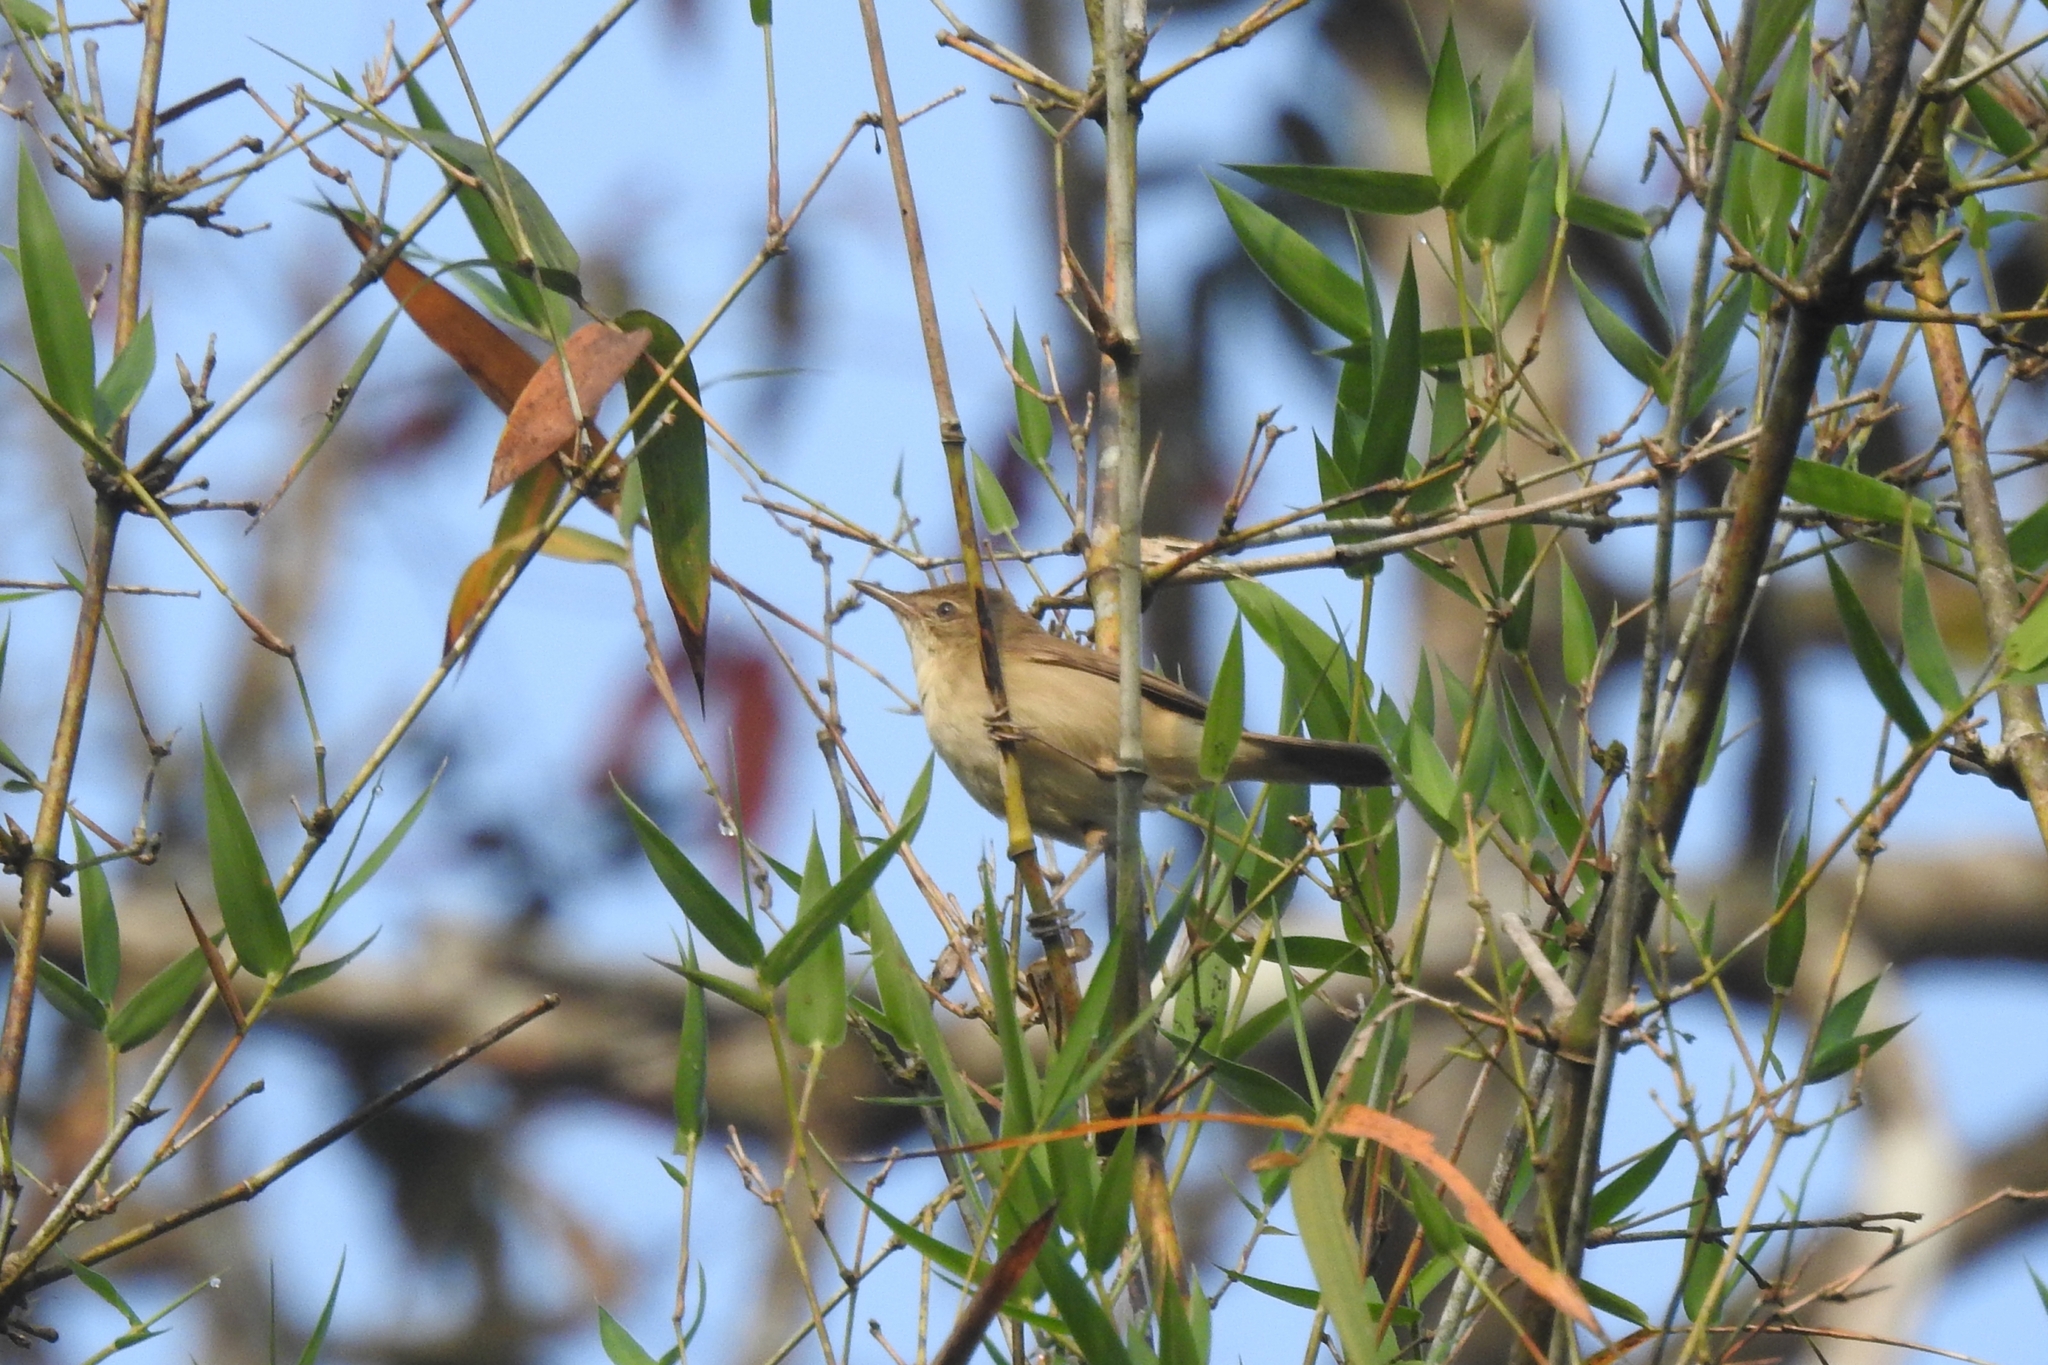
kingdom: Animalia
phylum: Chordata
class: Aves
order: Passeriformes
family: Acrocephalidae
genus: Acrocephalus
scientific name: Acrocephalus dumetorum
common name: Blyth's reed warbler
